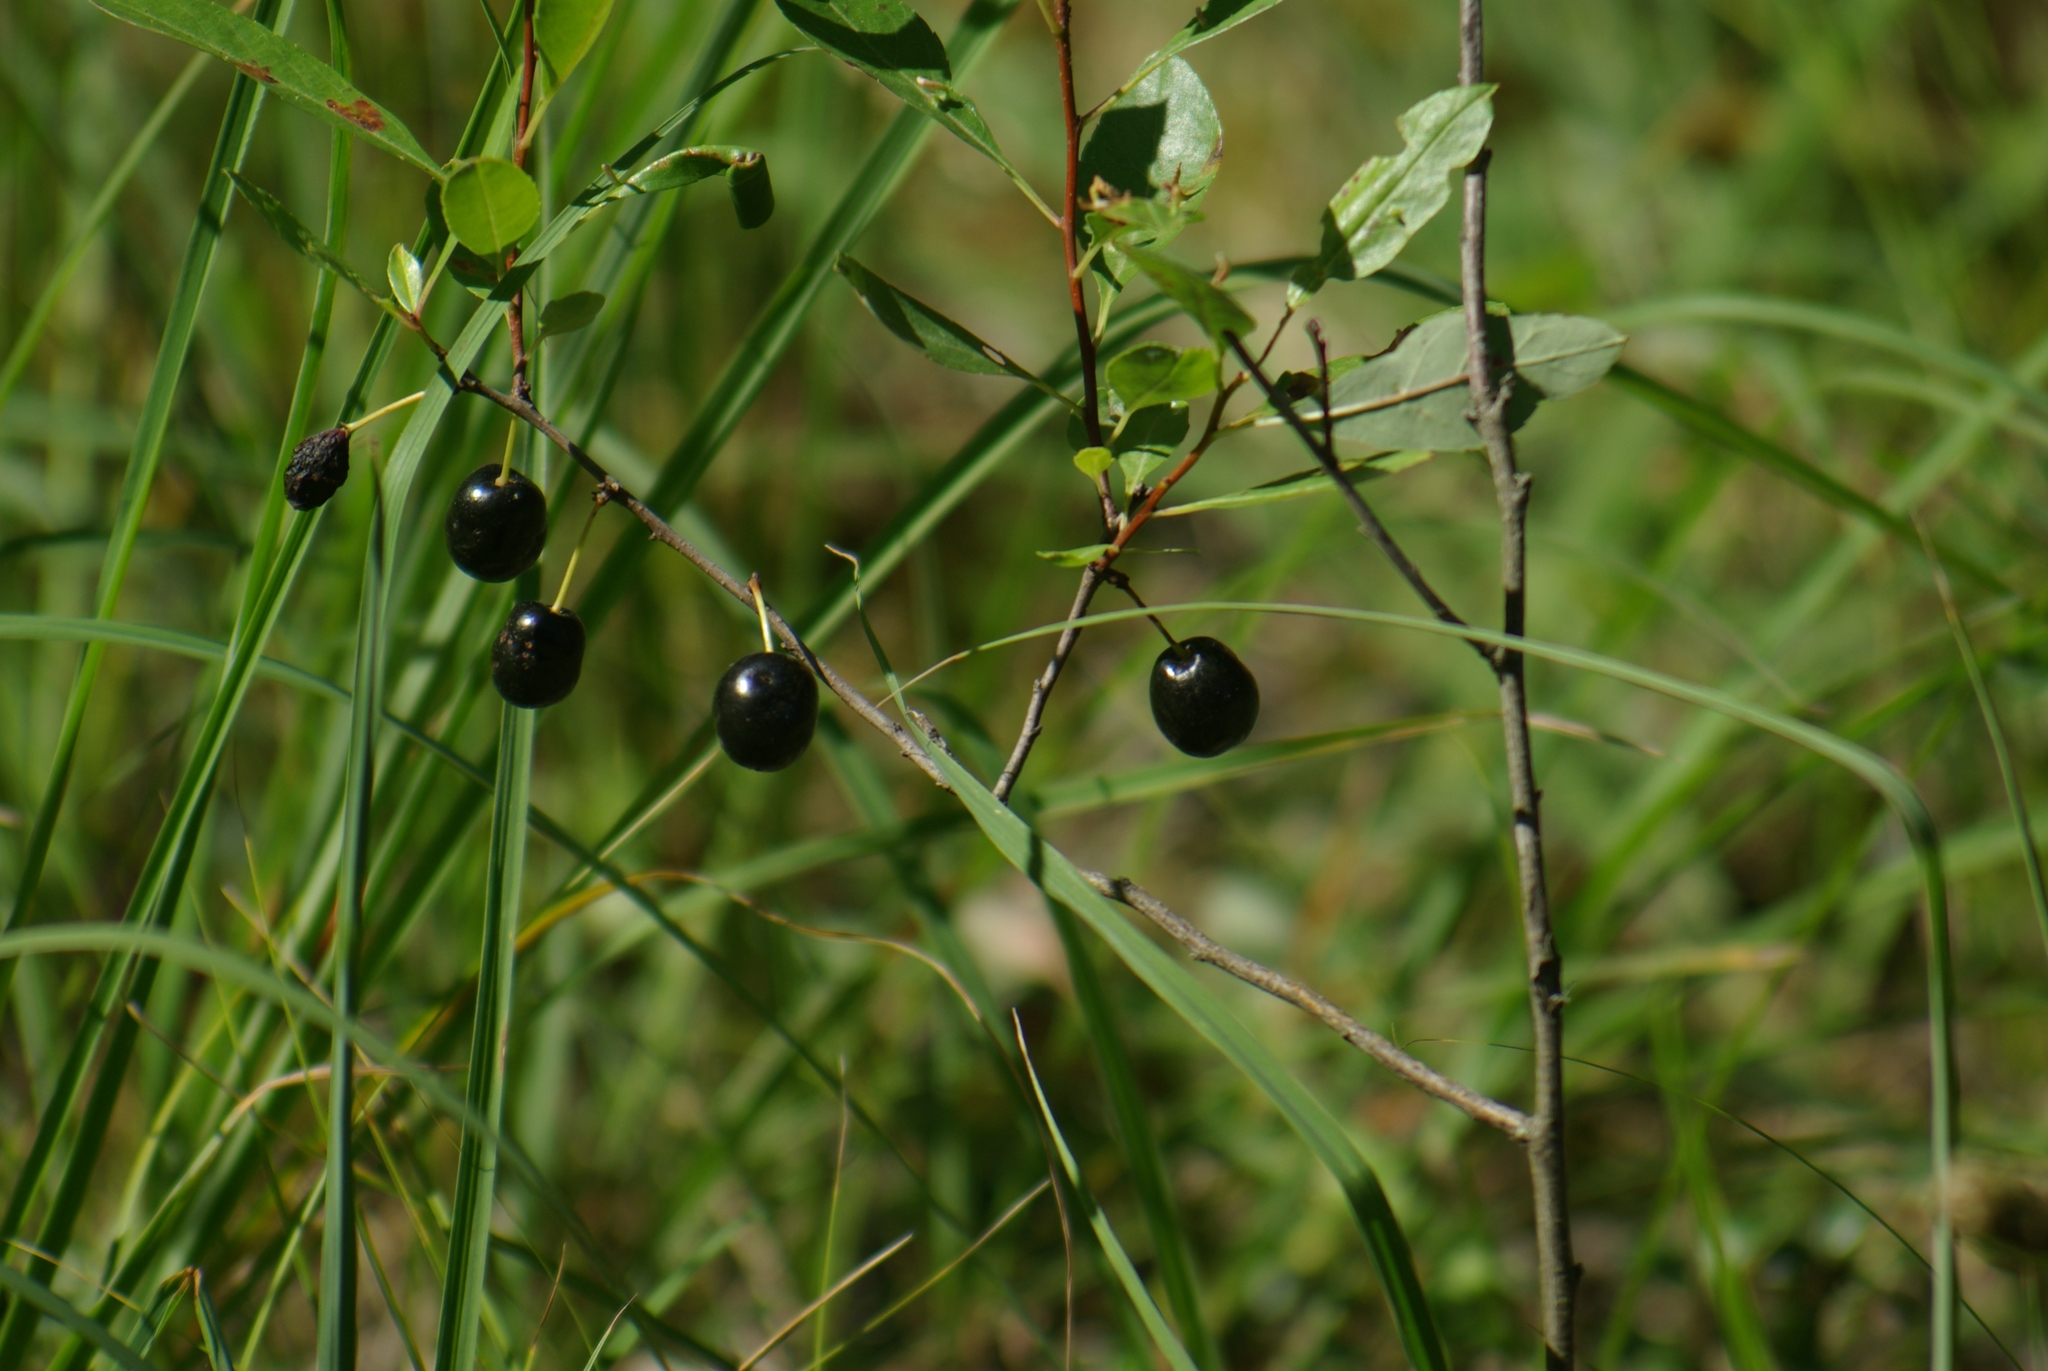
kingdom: Plantae
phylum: Tracheophyta
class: Magnoliopsida
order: Rosales
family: Rosaceae
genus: Prunus
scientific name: Prunus pumila
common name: Dwarf cherry
